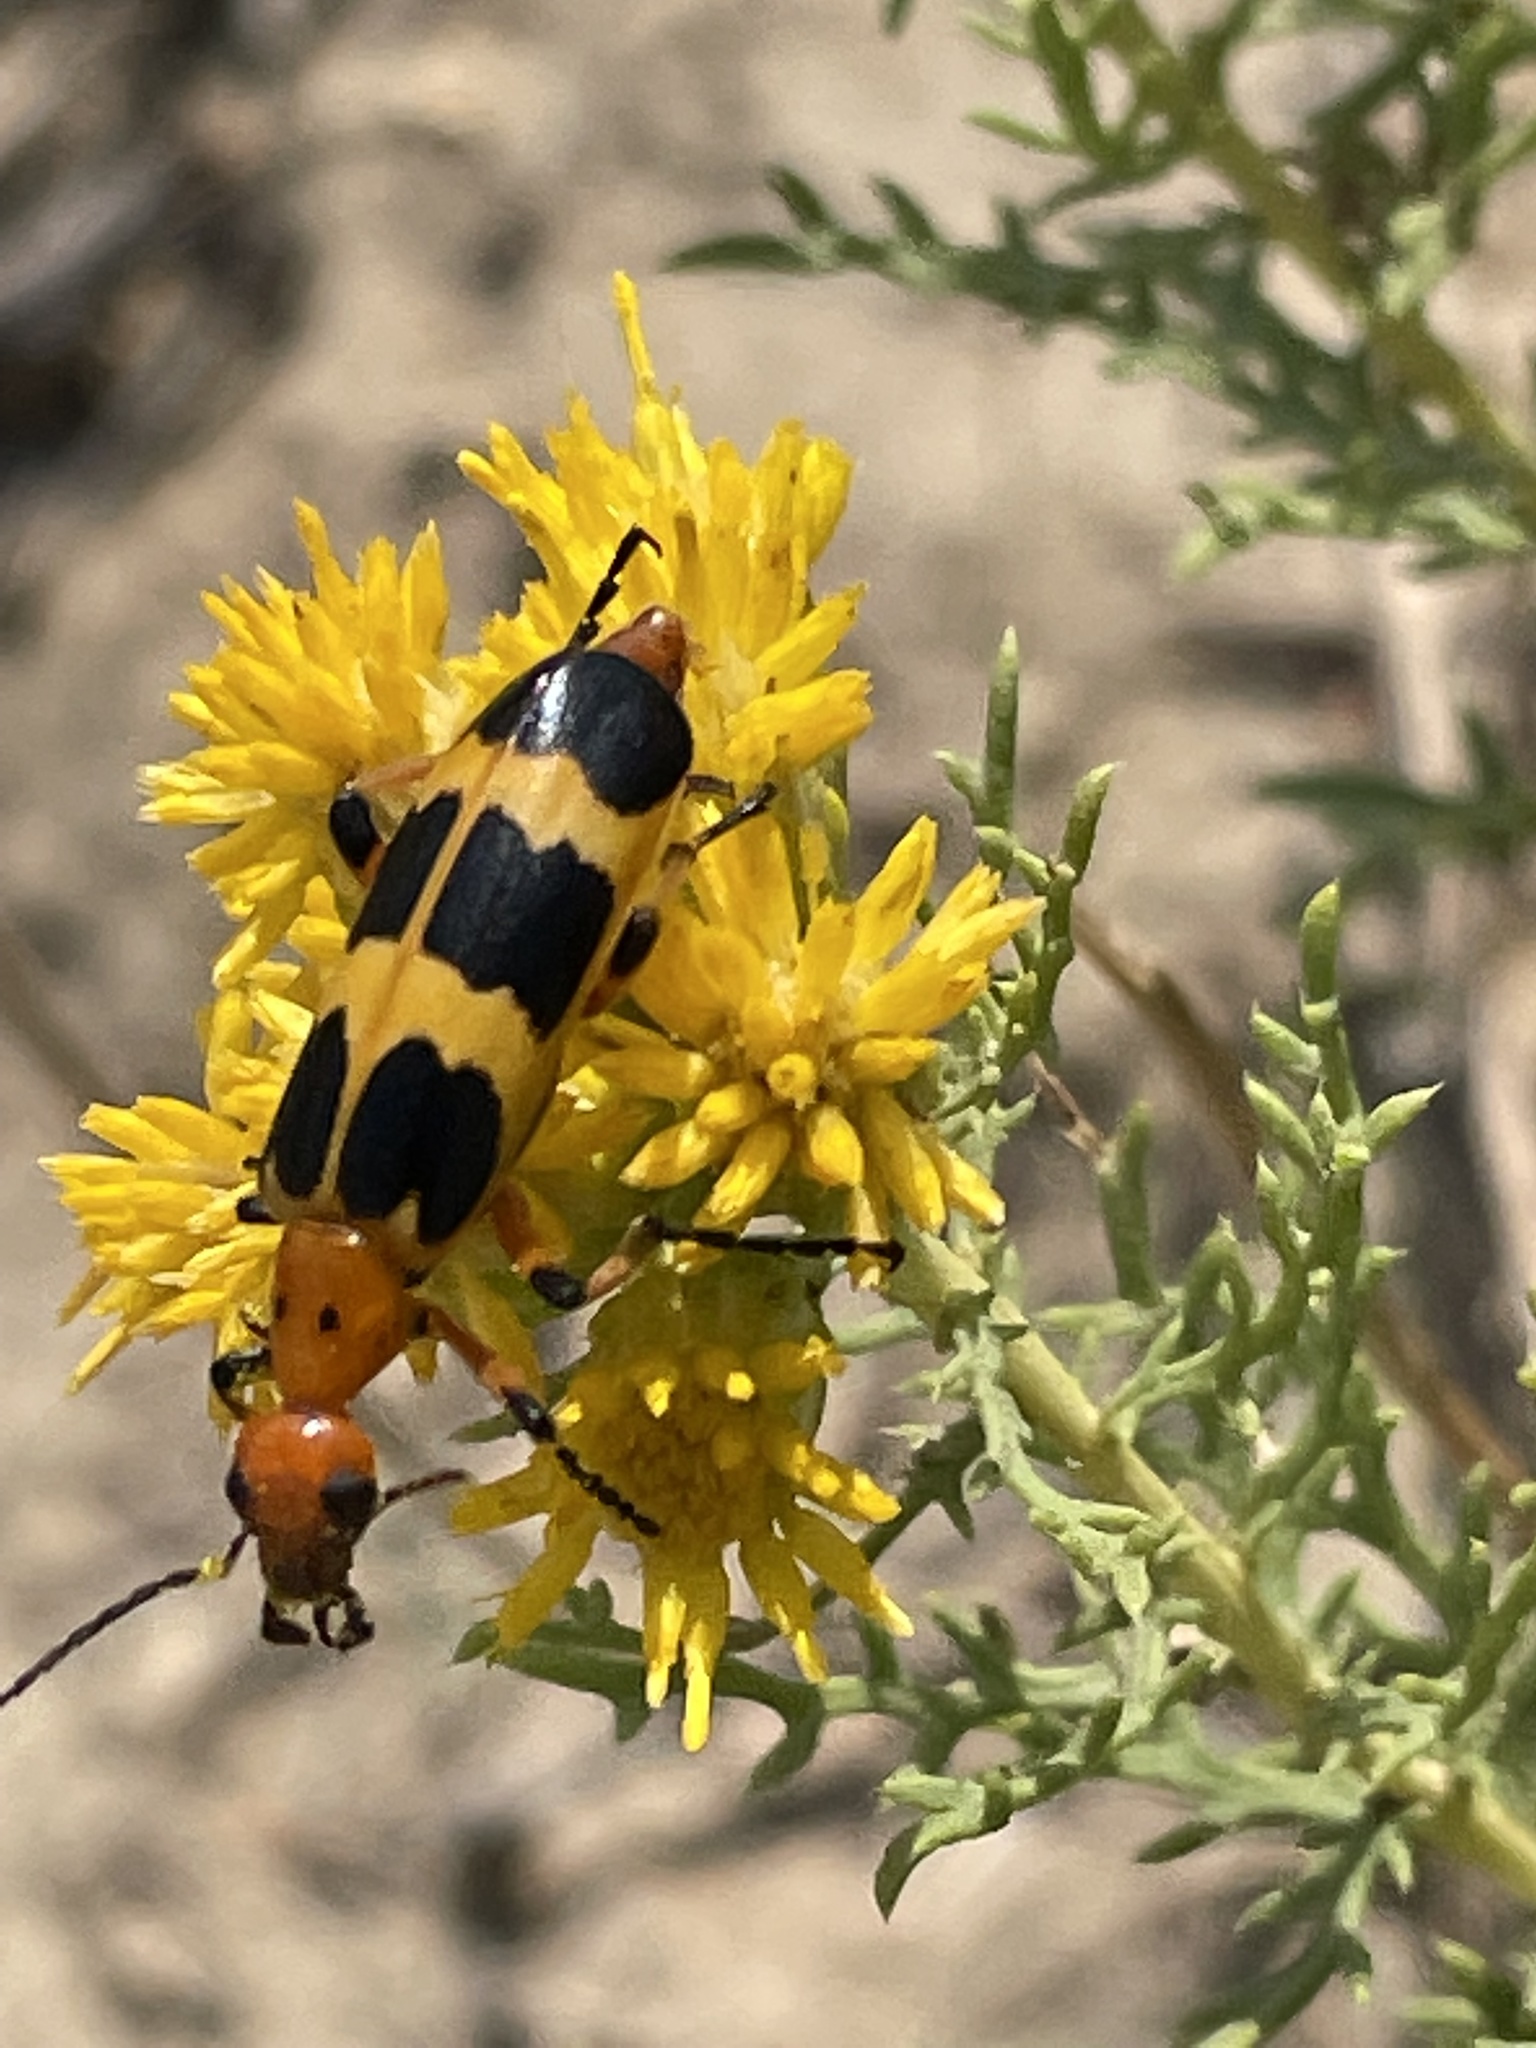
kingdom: Animalia
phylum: Arthropoda
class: Insecta
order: Coleoptera
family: Meloidae
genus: Pyrota
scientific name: Pyrota palpalis
